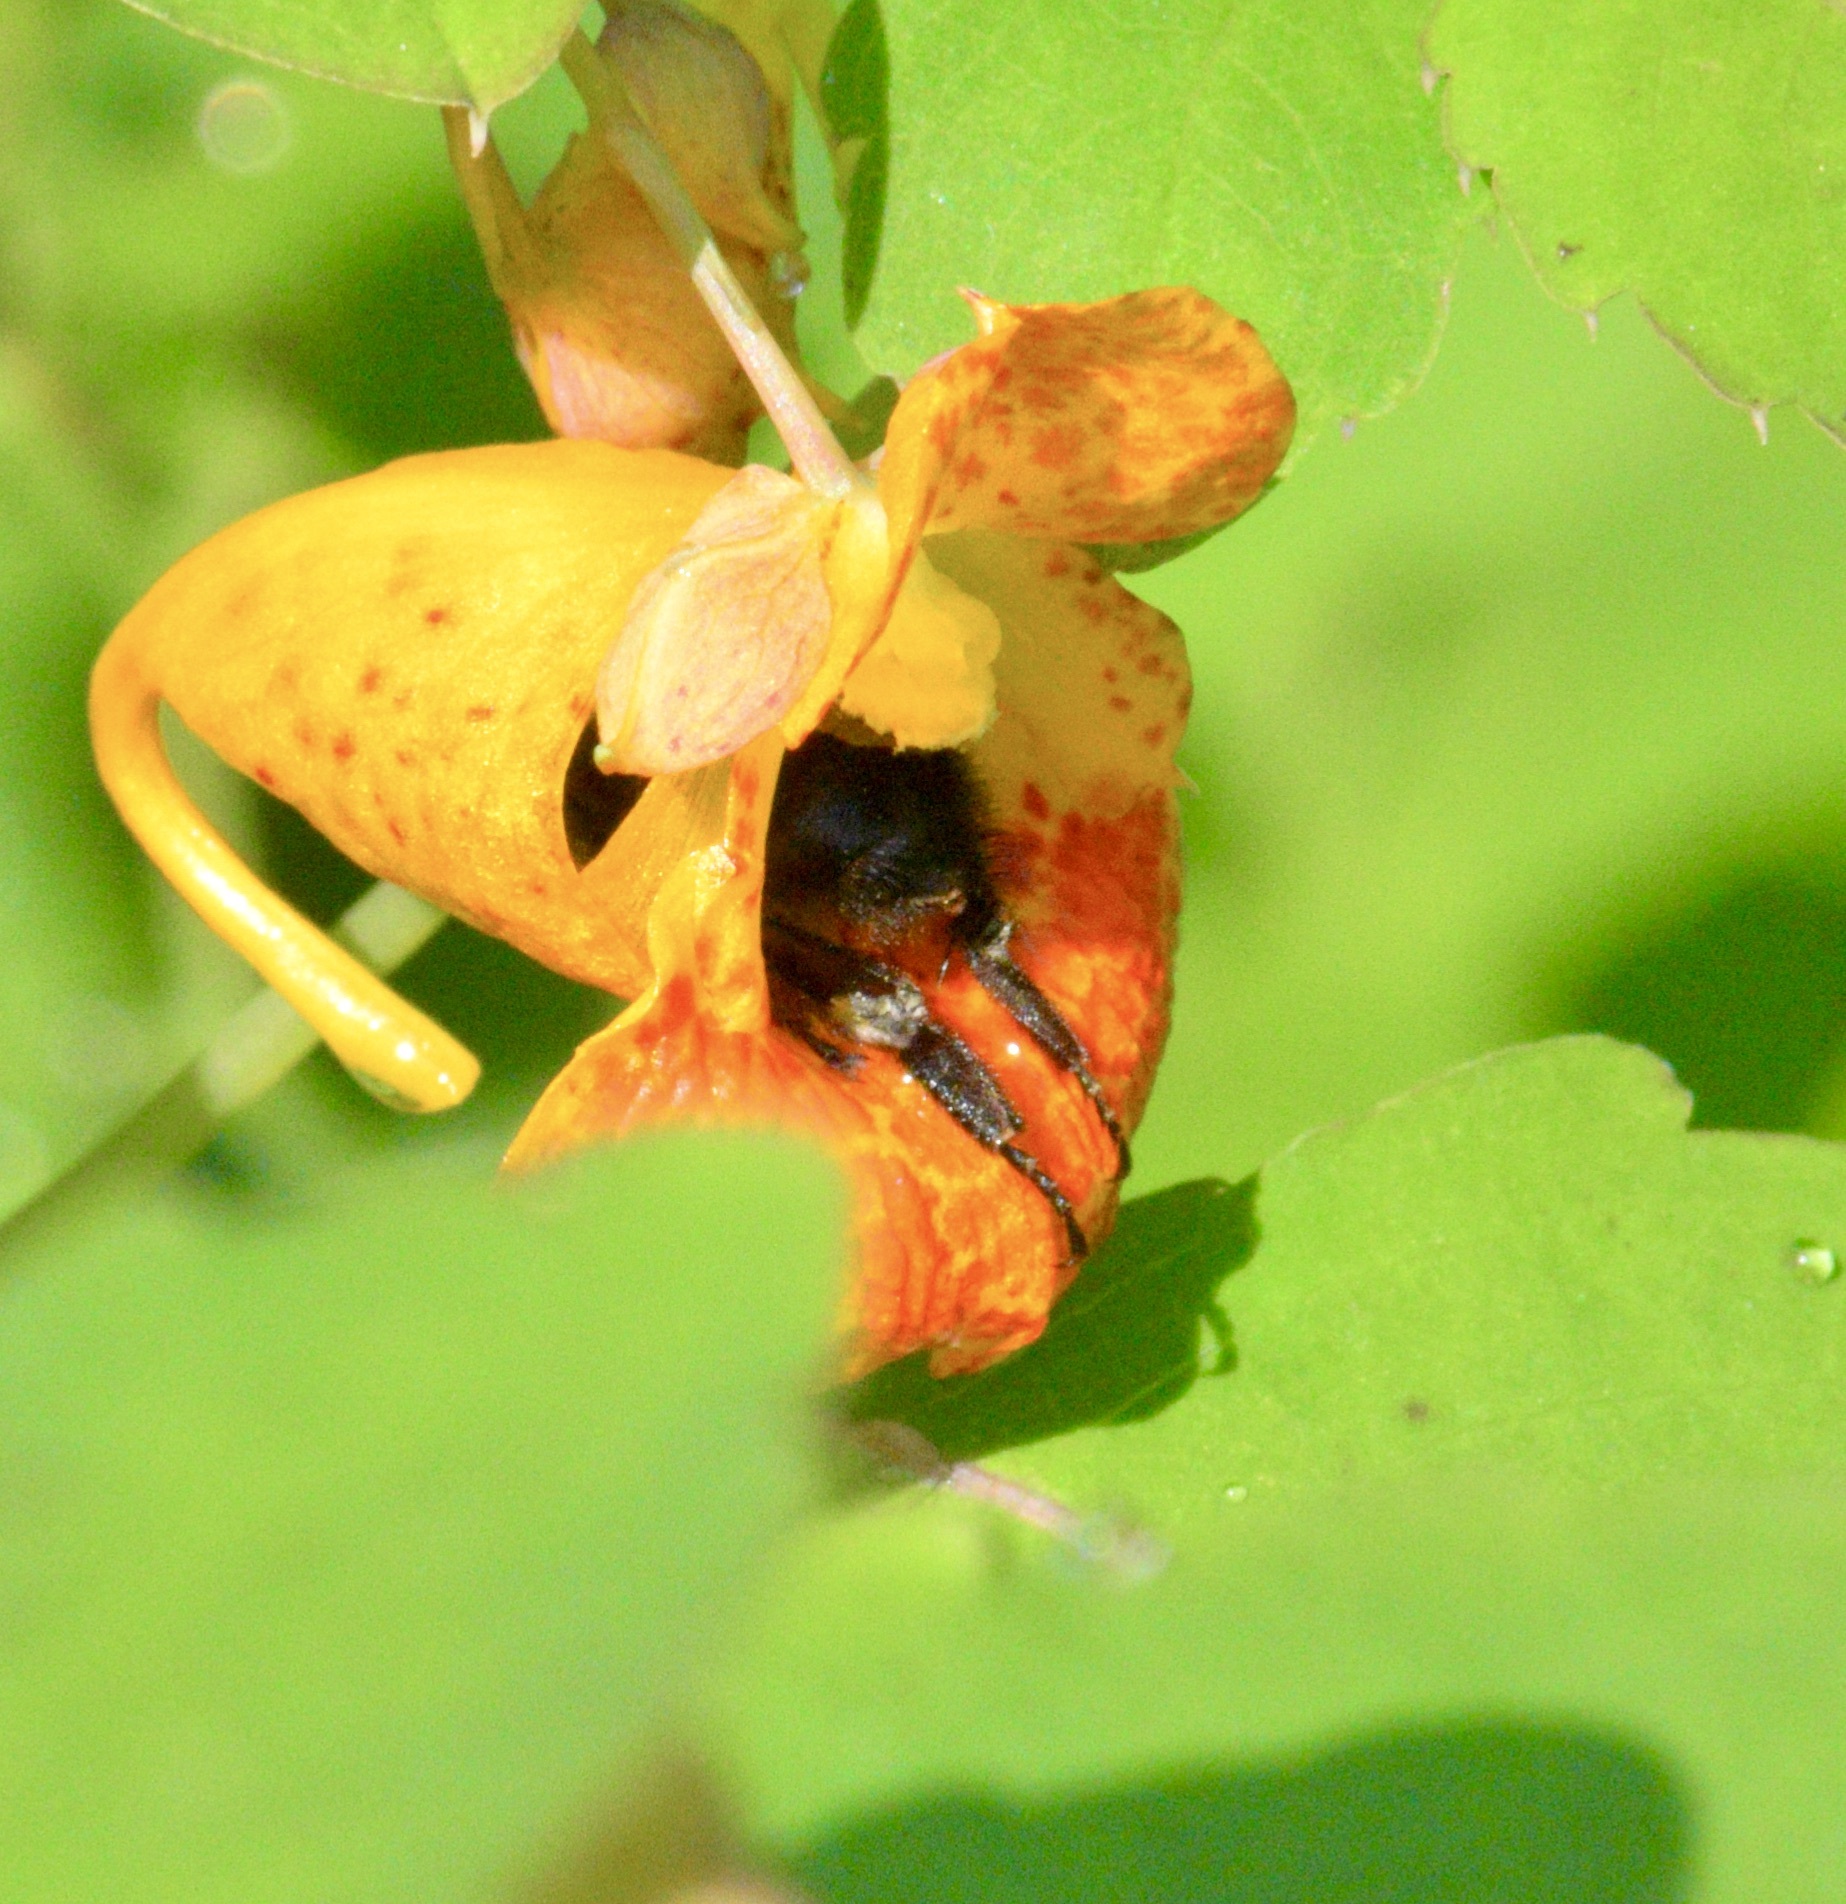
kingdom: Animalia
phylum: Arthropoda
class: Insecta
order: Hymenoptera
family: Apidae
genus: Bombus
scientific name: Bombus impatiens
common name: Common eastern bumble bee
